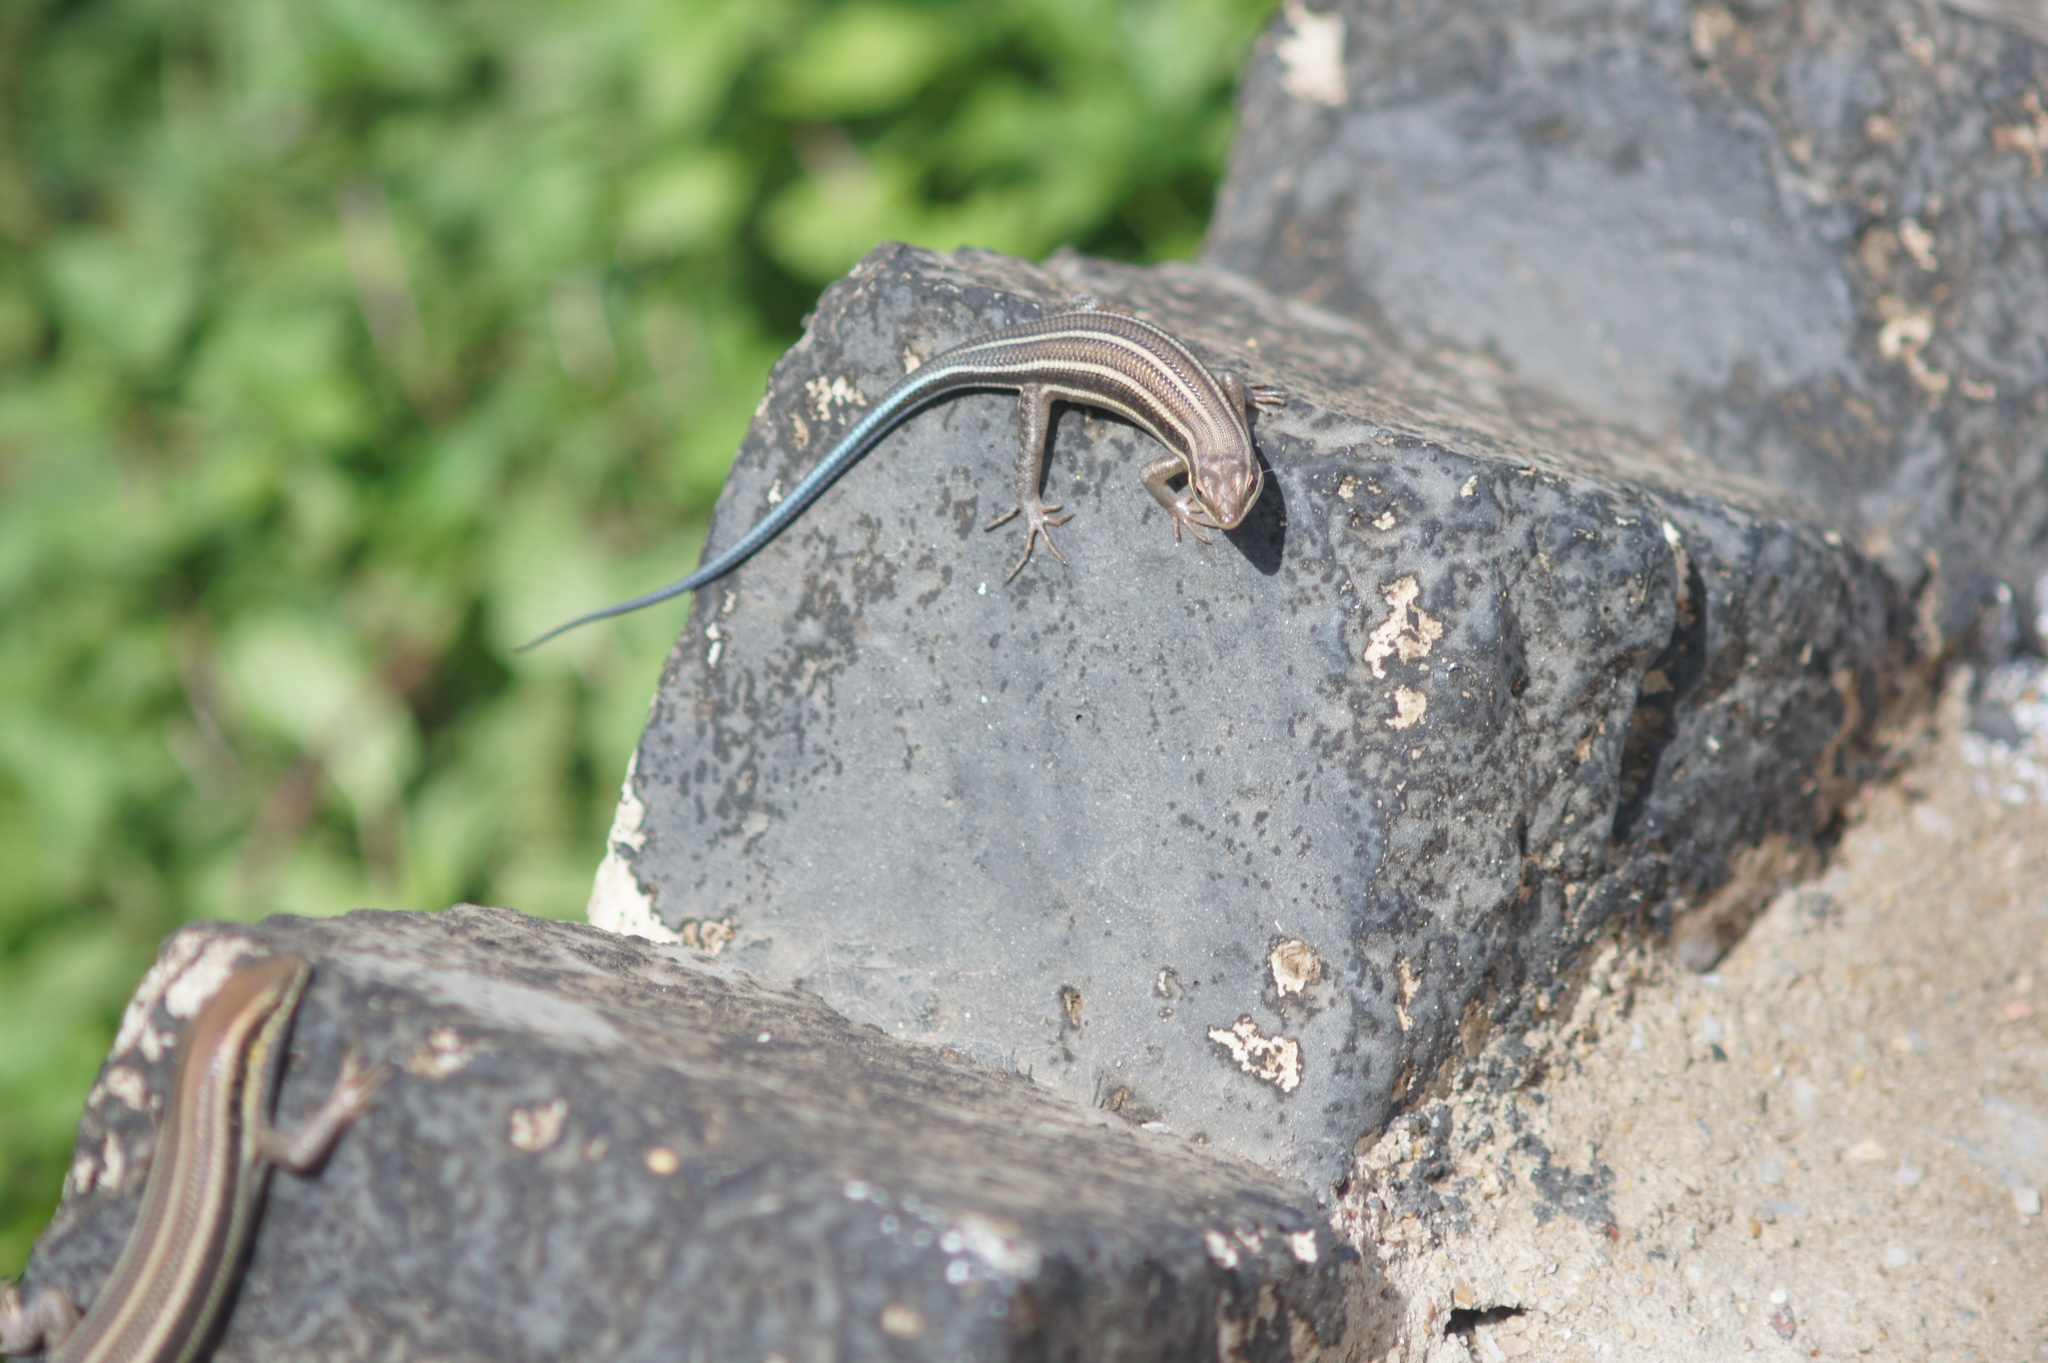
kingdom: Animalia
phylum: Chordata
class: Squamata
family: Scincidae
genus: Trachylepis
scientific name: Trachylepis quinquetaeniata
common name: African five-lined skink
